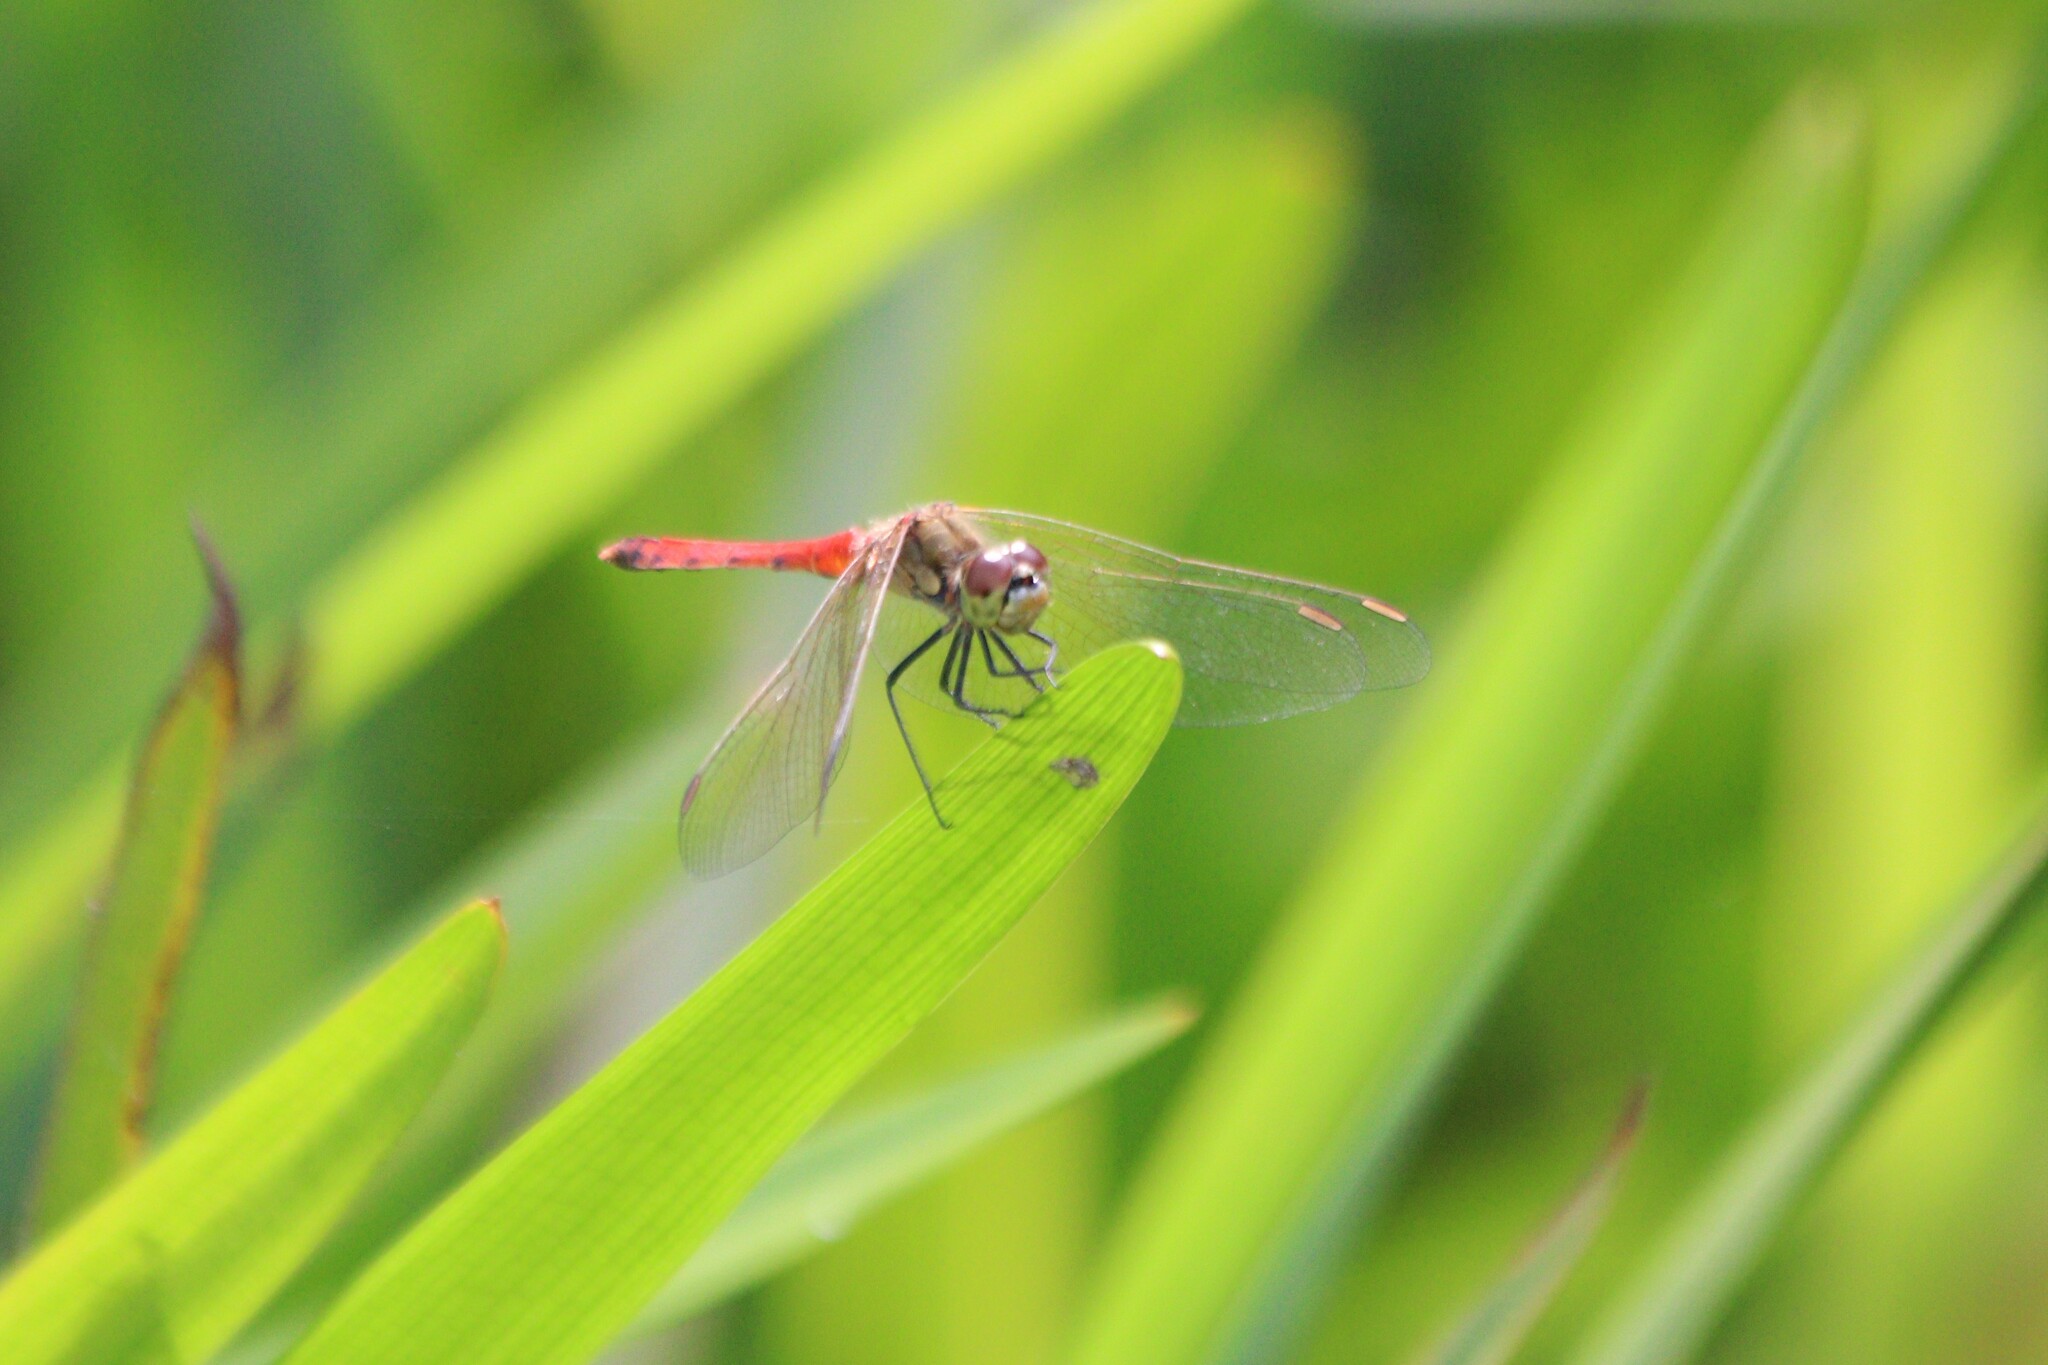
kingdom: Animalia
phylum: Arthropoda
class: Insecta
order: Odonata
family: Libellulidae
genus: Sympetrum
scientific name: Sympetrum depressiusculum
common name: Spotted darter
